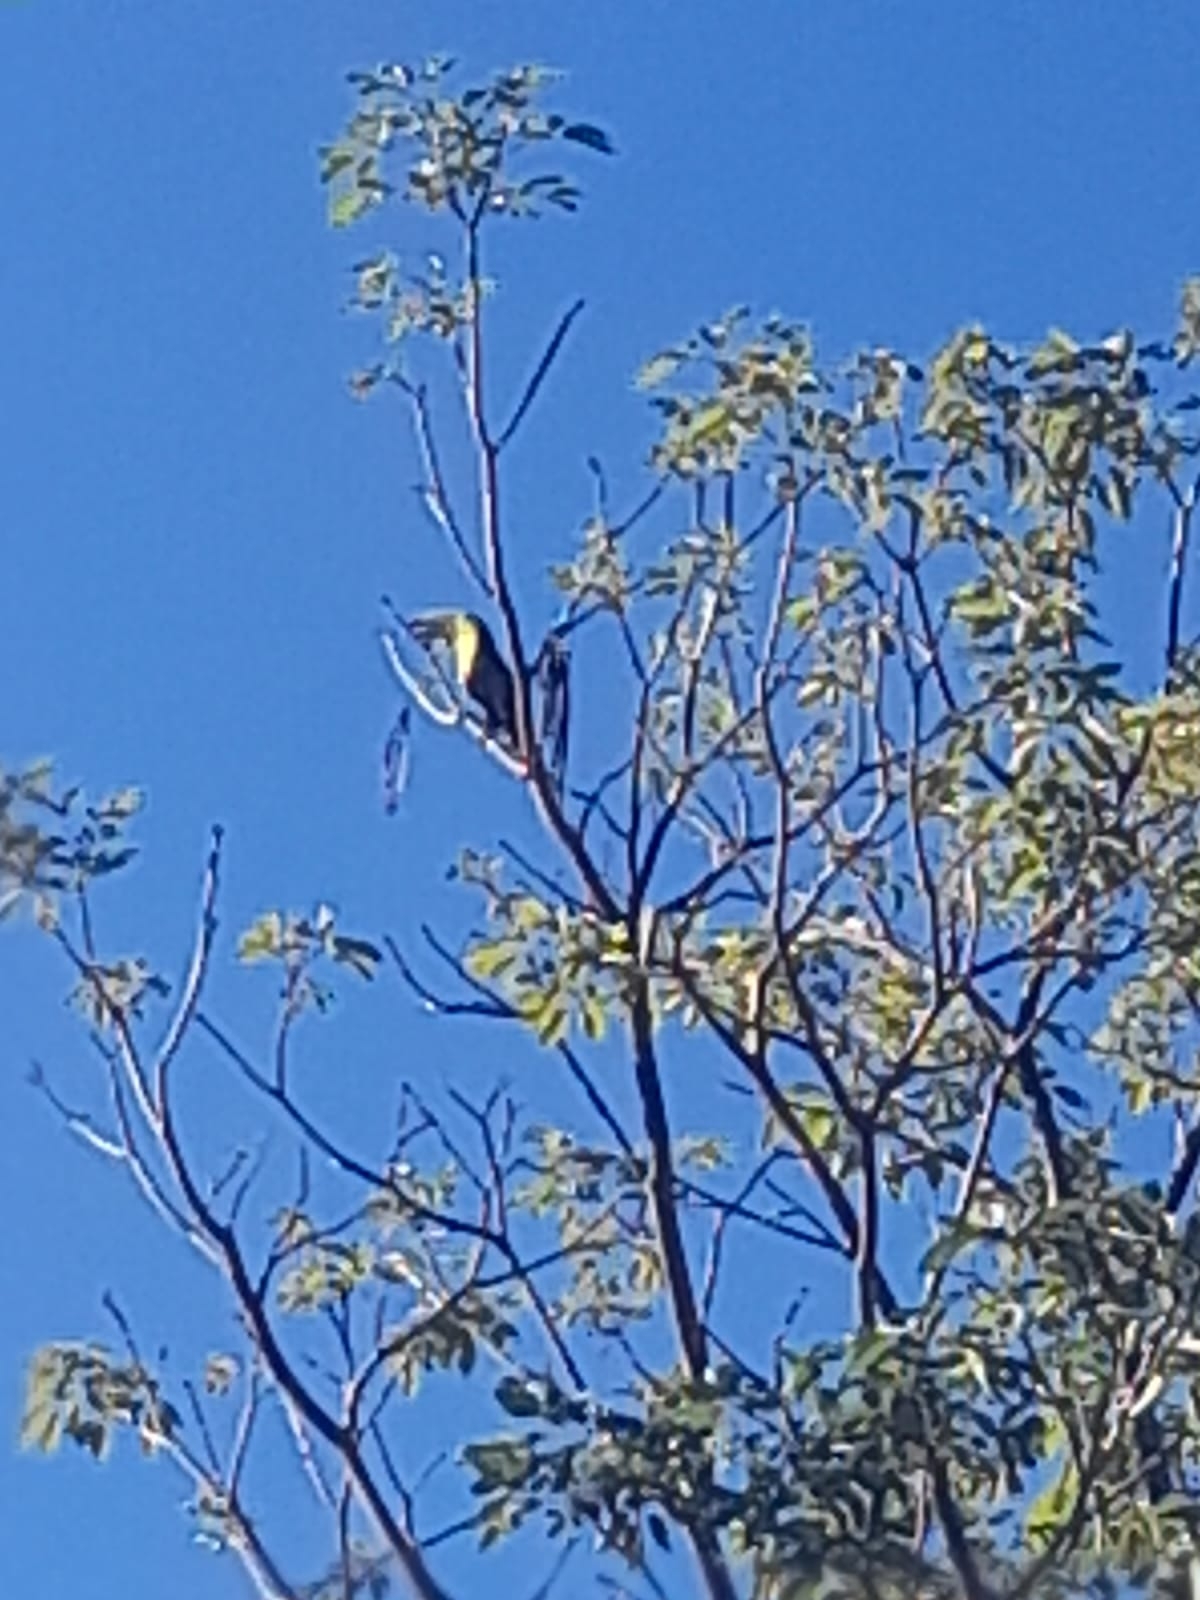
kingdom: Animalia
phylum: Chordata
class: Aves
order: Piciformes
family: Ramphastidae
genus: Ramphastos
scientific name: Ramphastos sulfuratus
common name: Keel-billed toucan
